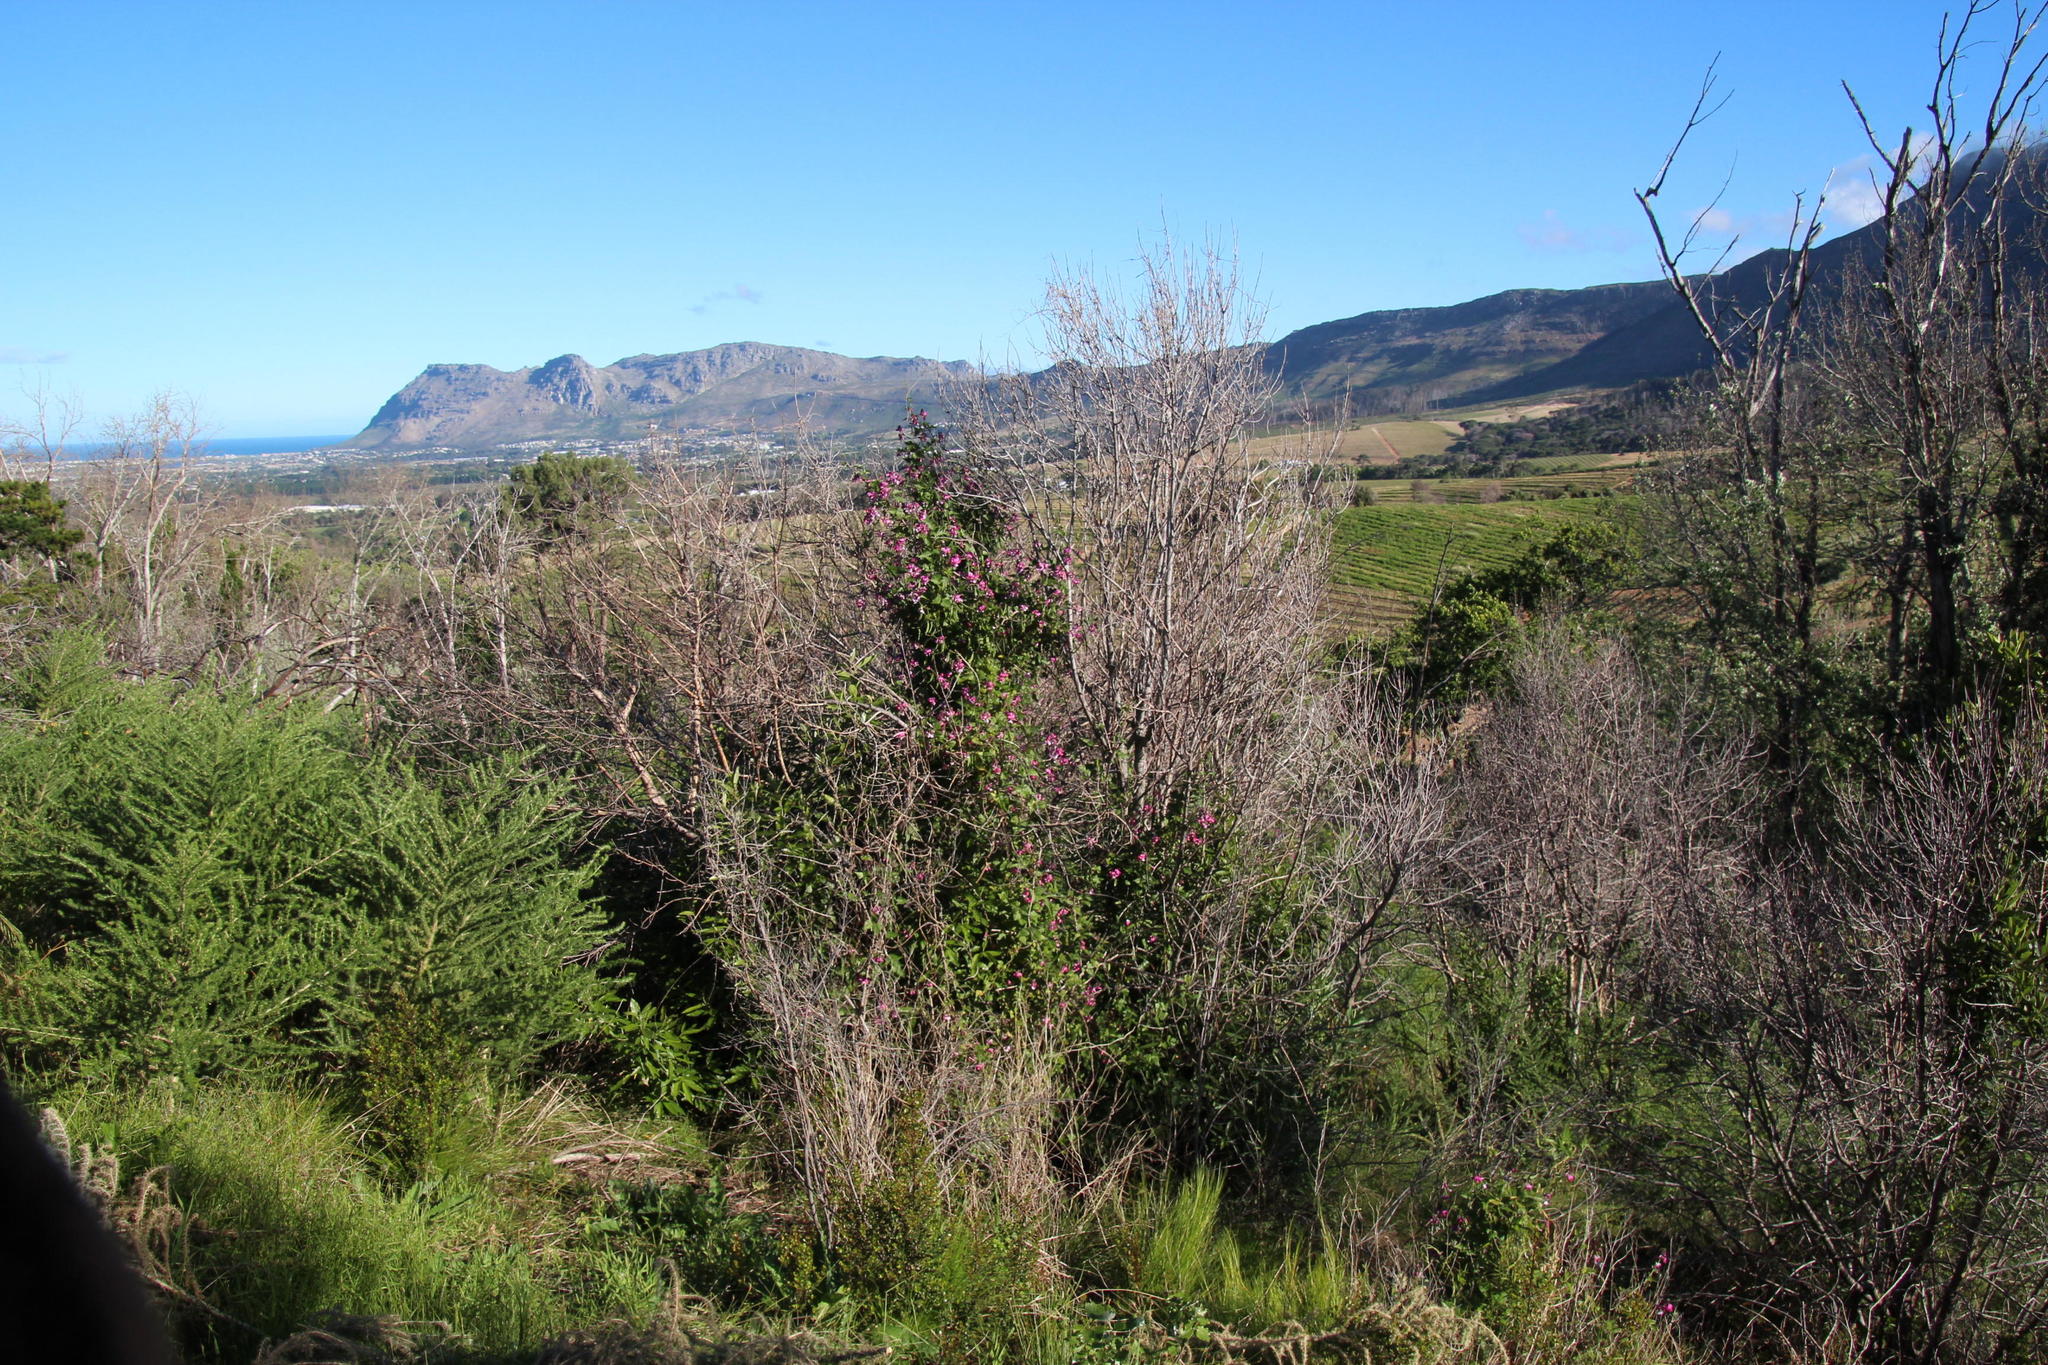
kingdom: Plantae
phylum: Tracheophyta
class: Magnoliopsida
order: Fabales
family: Fabaceae
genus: Dipogon
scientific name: Dipogon lignosus
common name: Okie bean
